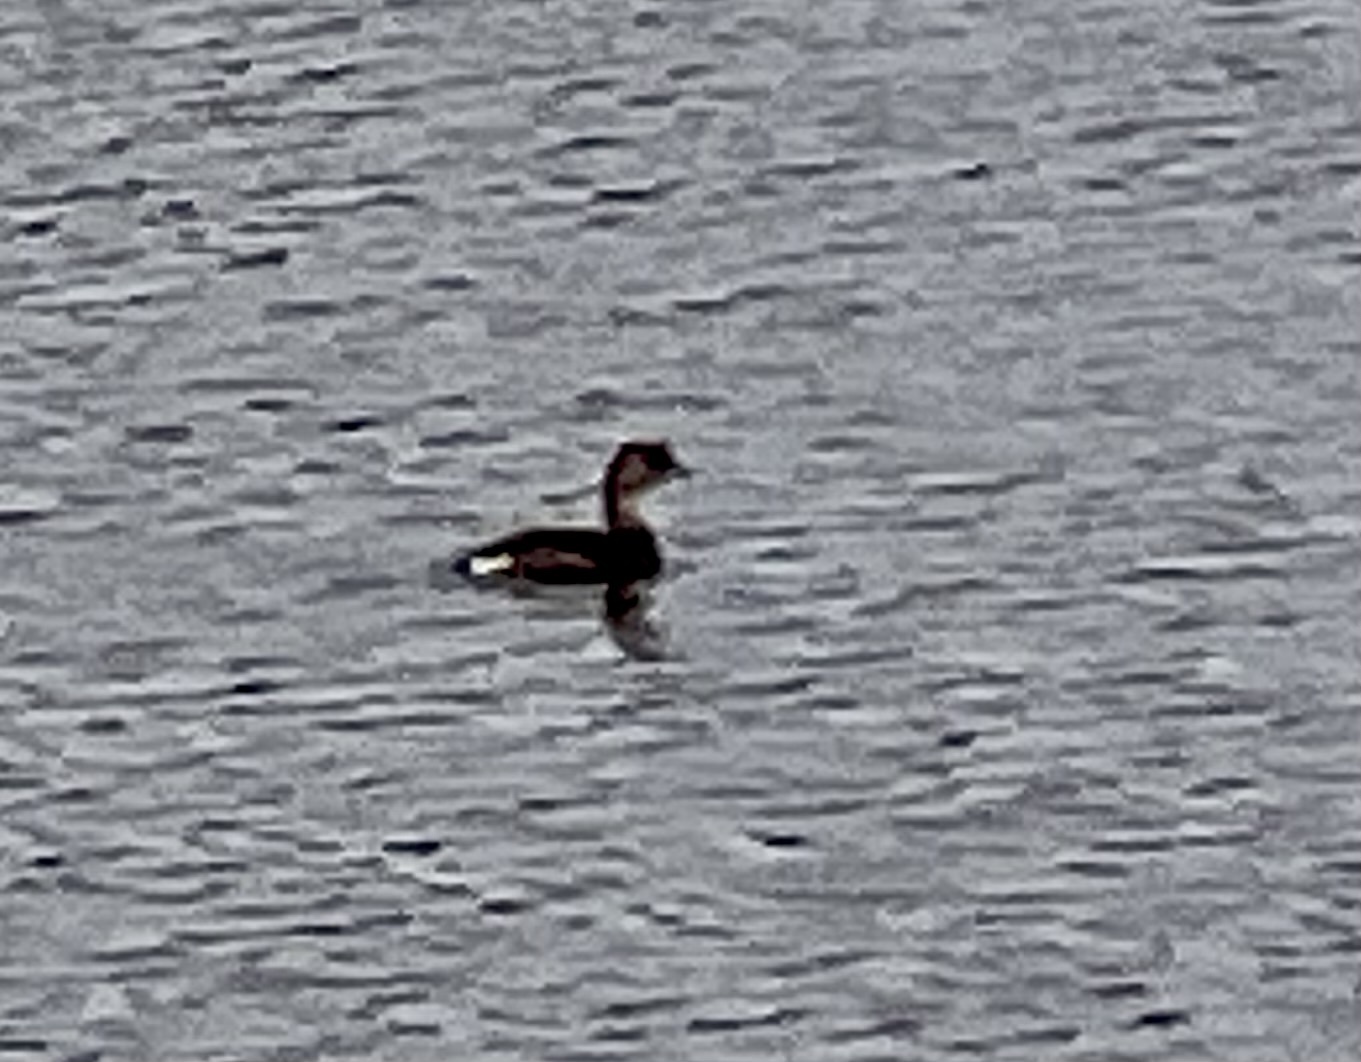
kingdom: Animalia
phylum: Chordata
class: Aves
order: Podicipediformes
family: Podicipedidae
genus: Podilymbus
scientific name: Podilymbus podiceps
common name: Pied-billed grebe
